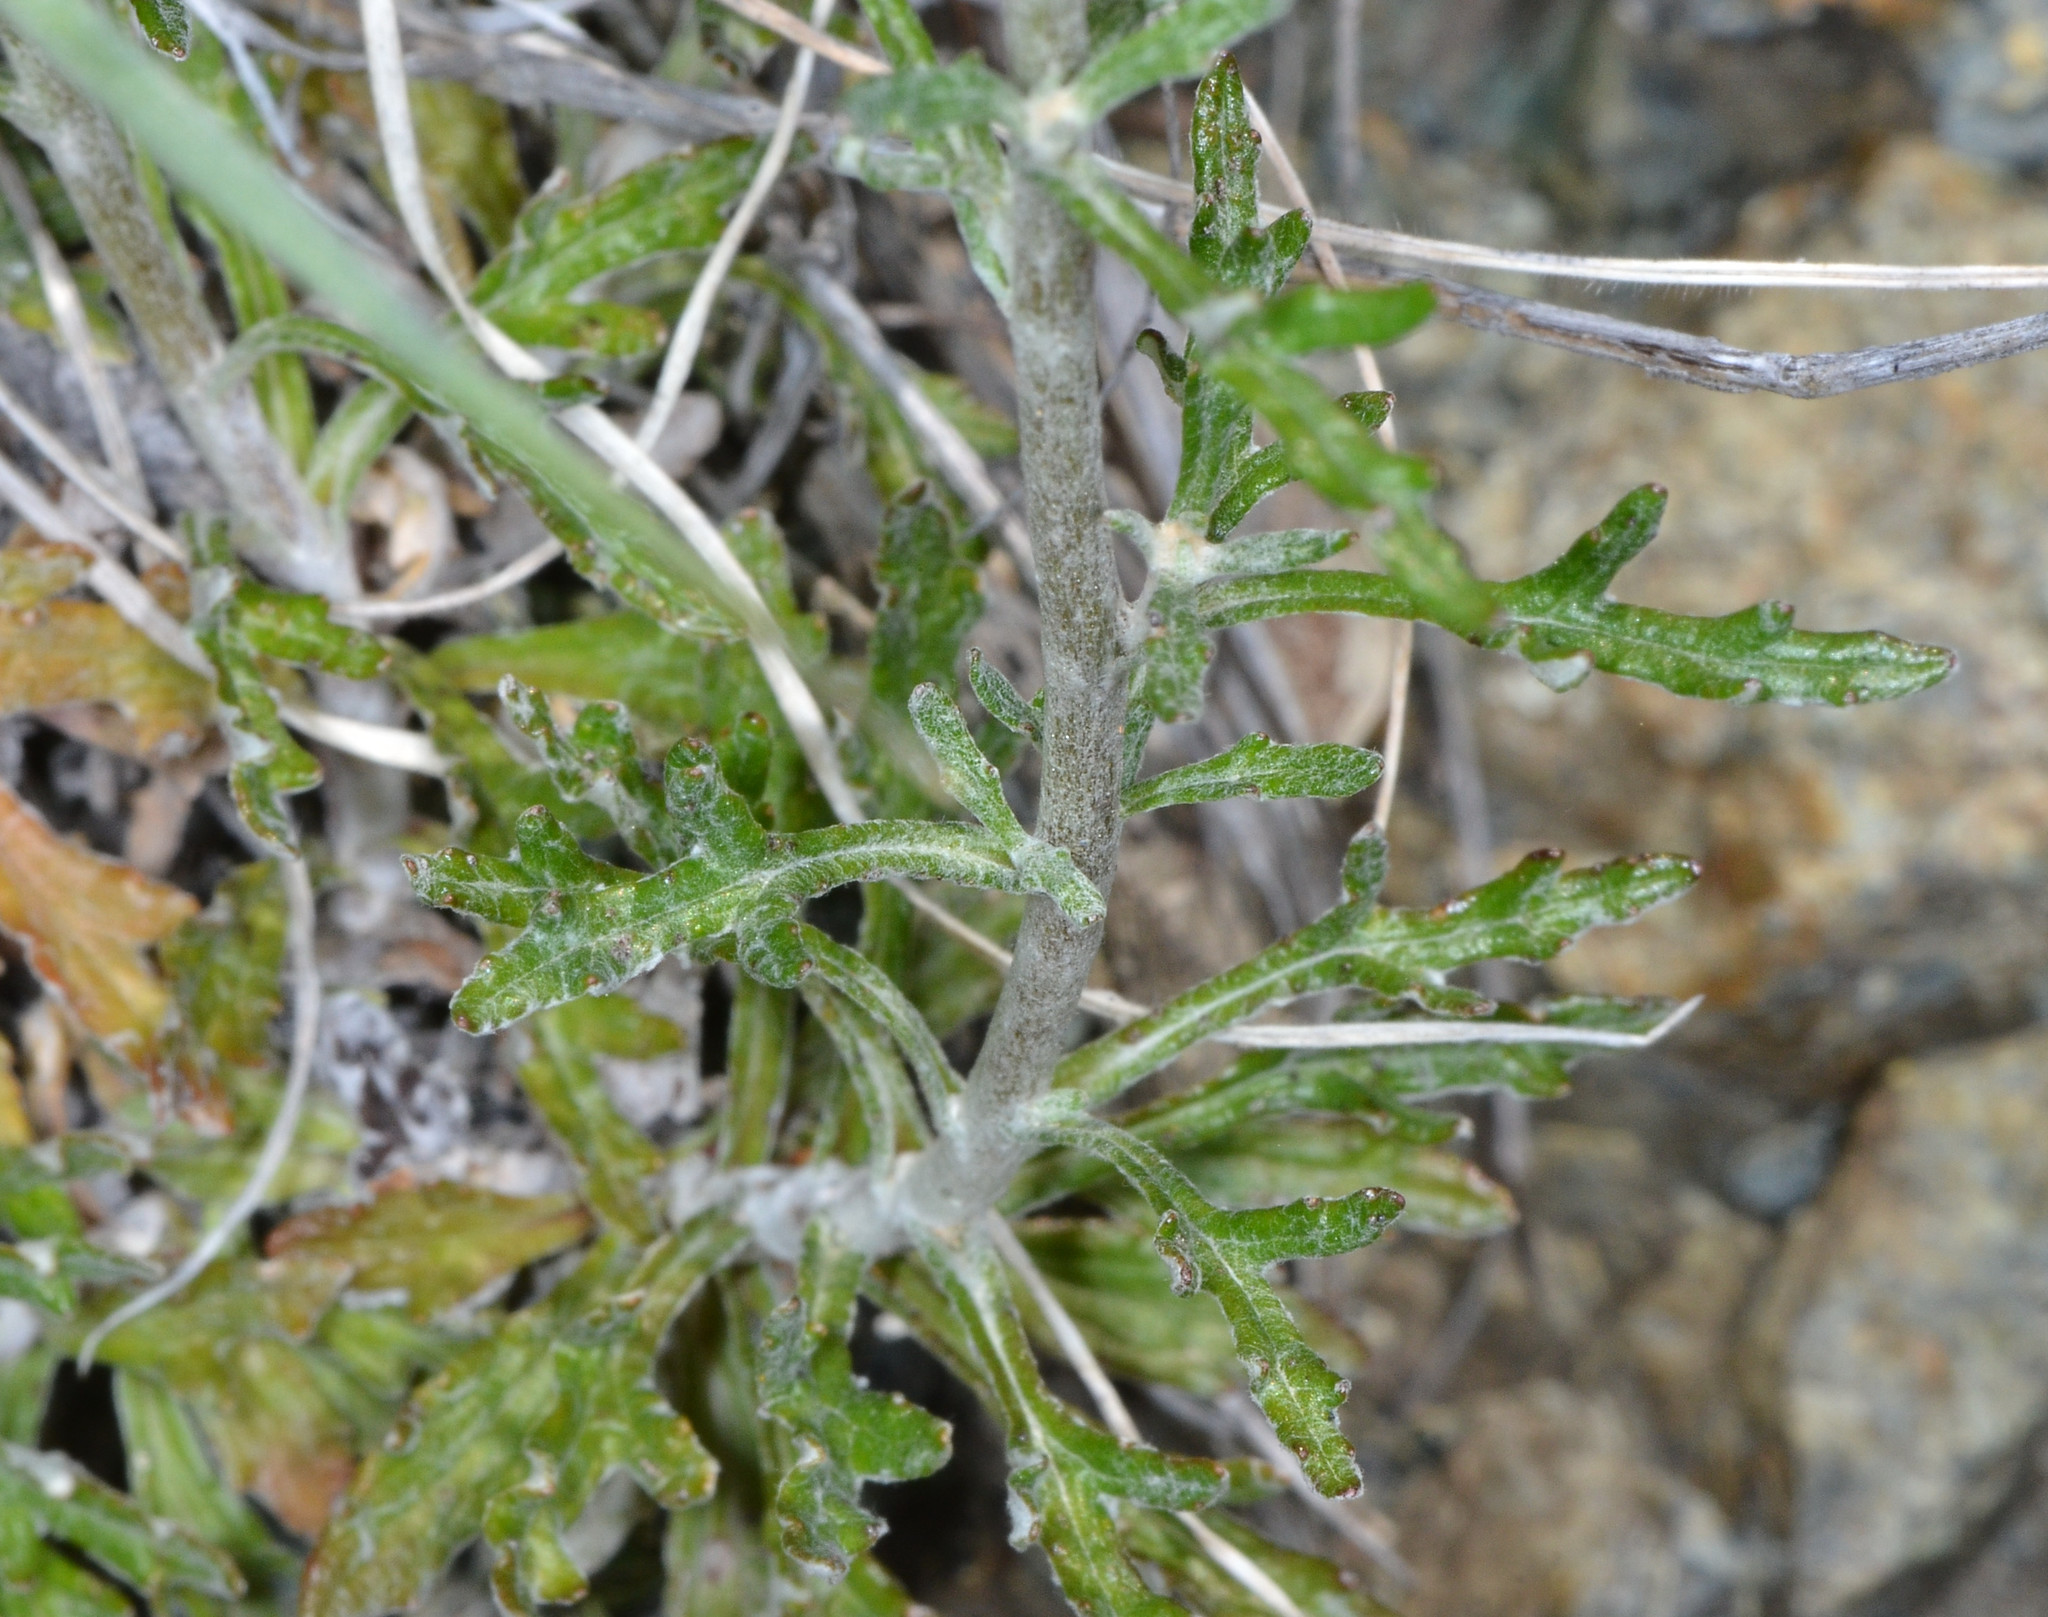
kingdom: Plantae
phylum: Tracheophyta
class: Magnoliopsida
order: Asterales
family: Asteraceae
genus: Eriophyllum
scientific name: Eriophyllum lanatum
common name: Common woolly-sunflower
